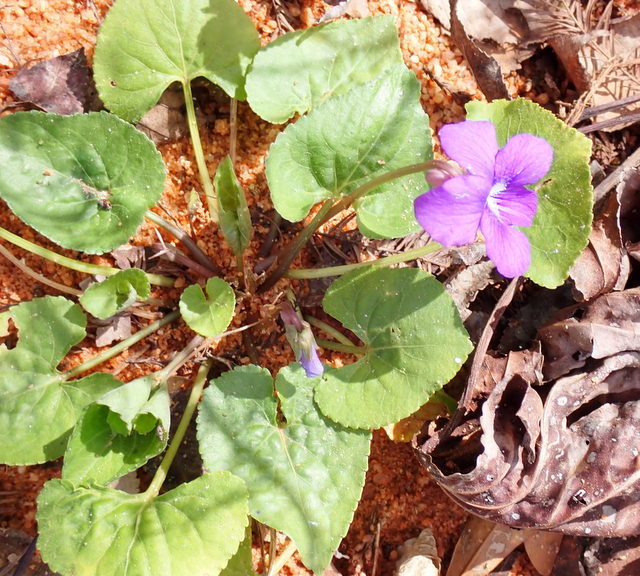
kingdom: Plantae
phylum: Tracheophyta
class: Magnoliopsida
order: Malpighiales
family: Violaceae
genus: Viola
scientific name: Viola sororia
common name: Dooryard violet
